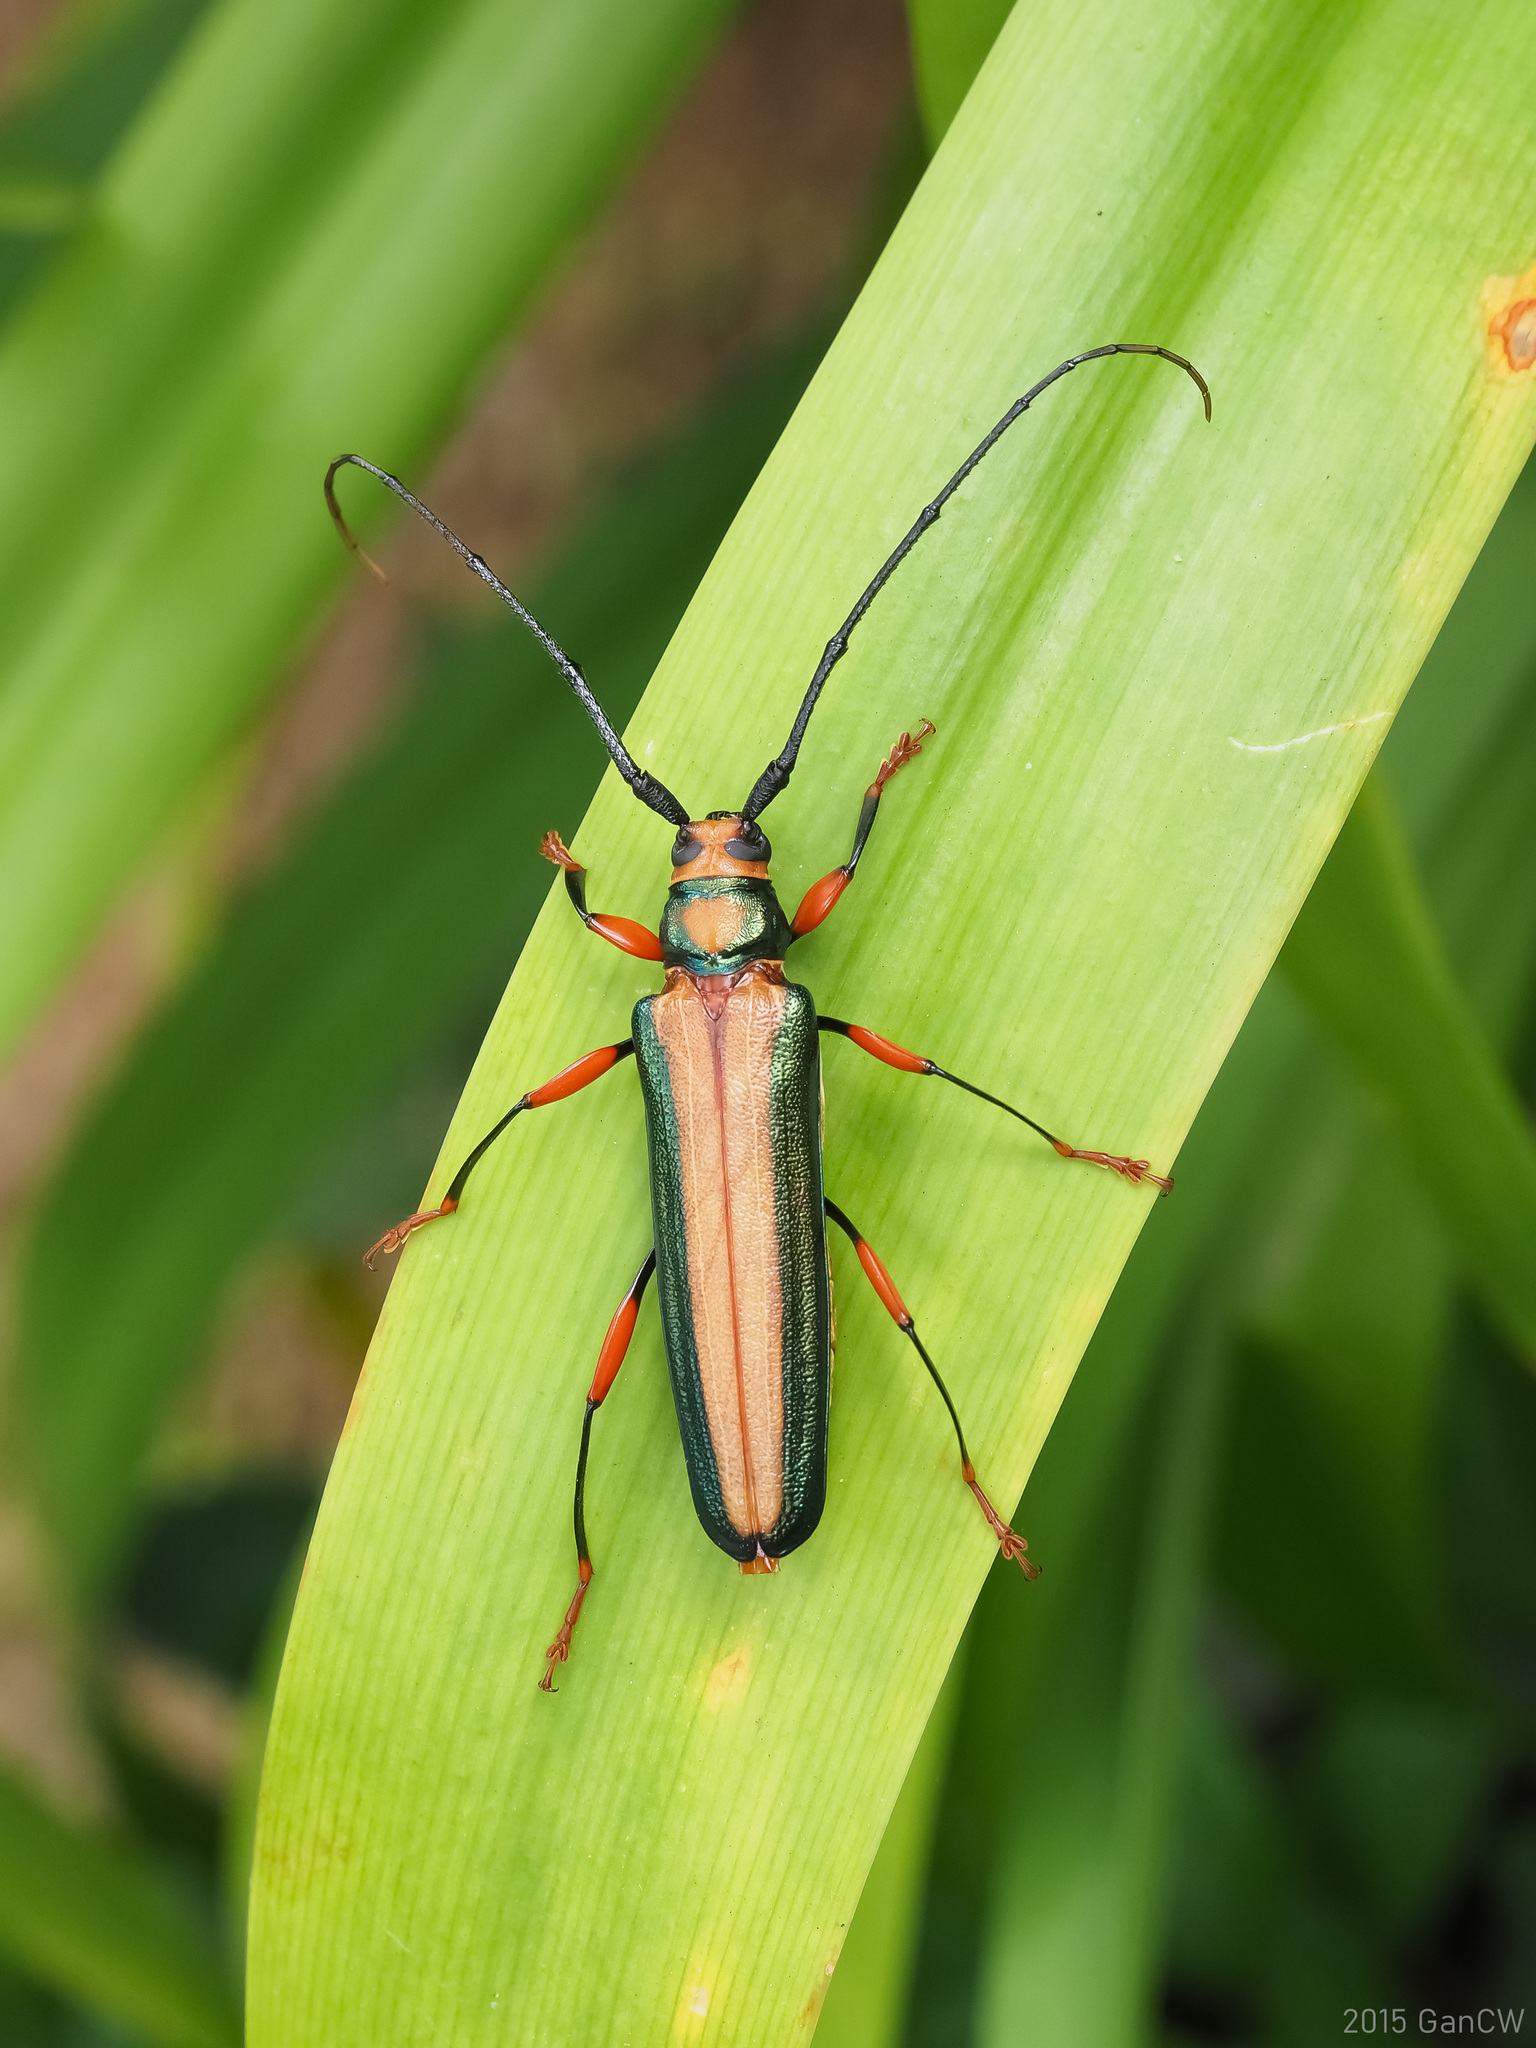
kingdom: Animalia
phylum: Arthropoda
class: Insecta
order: Coleoptera
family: Cerambycidae
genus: Xystrocera
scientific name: Xystrocera festiva
